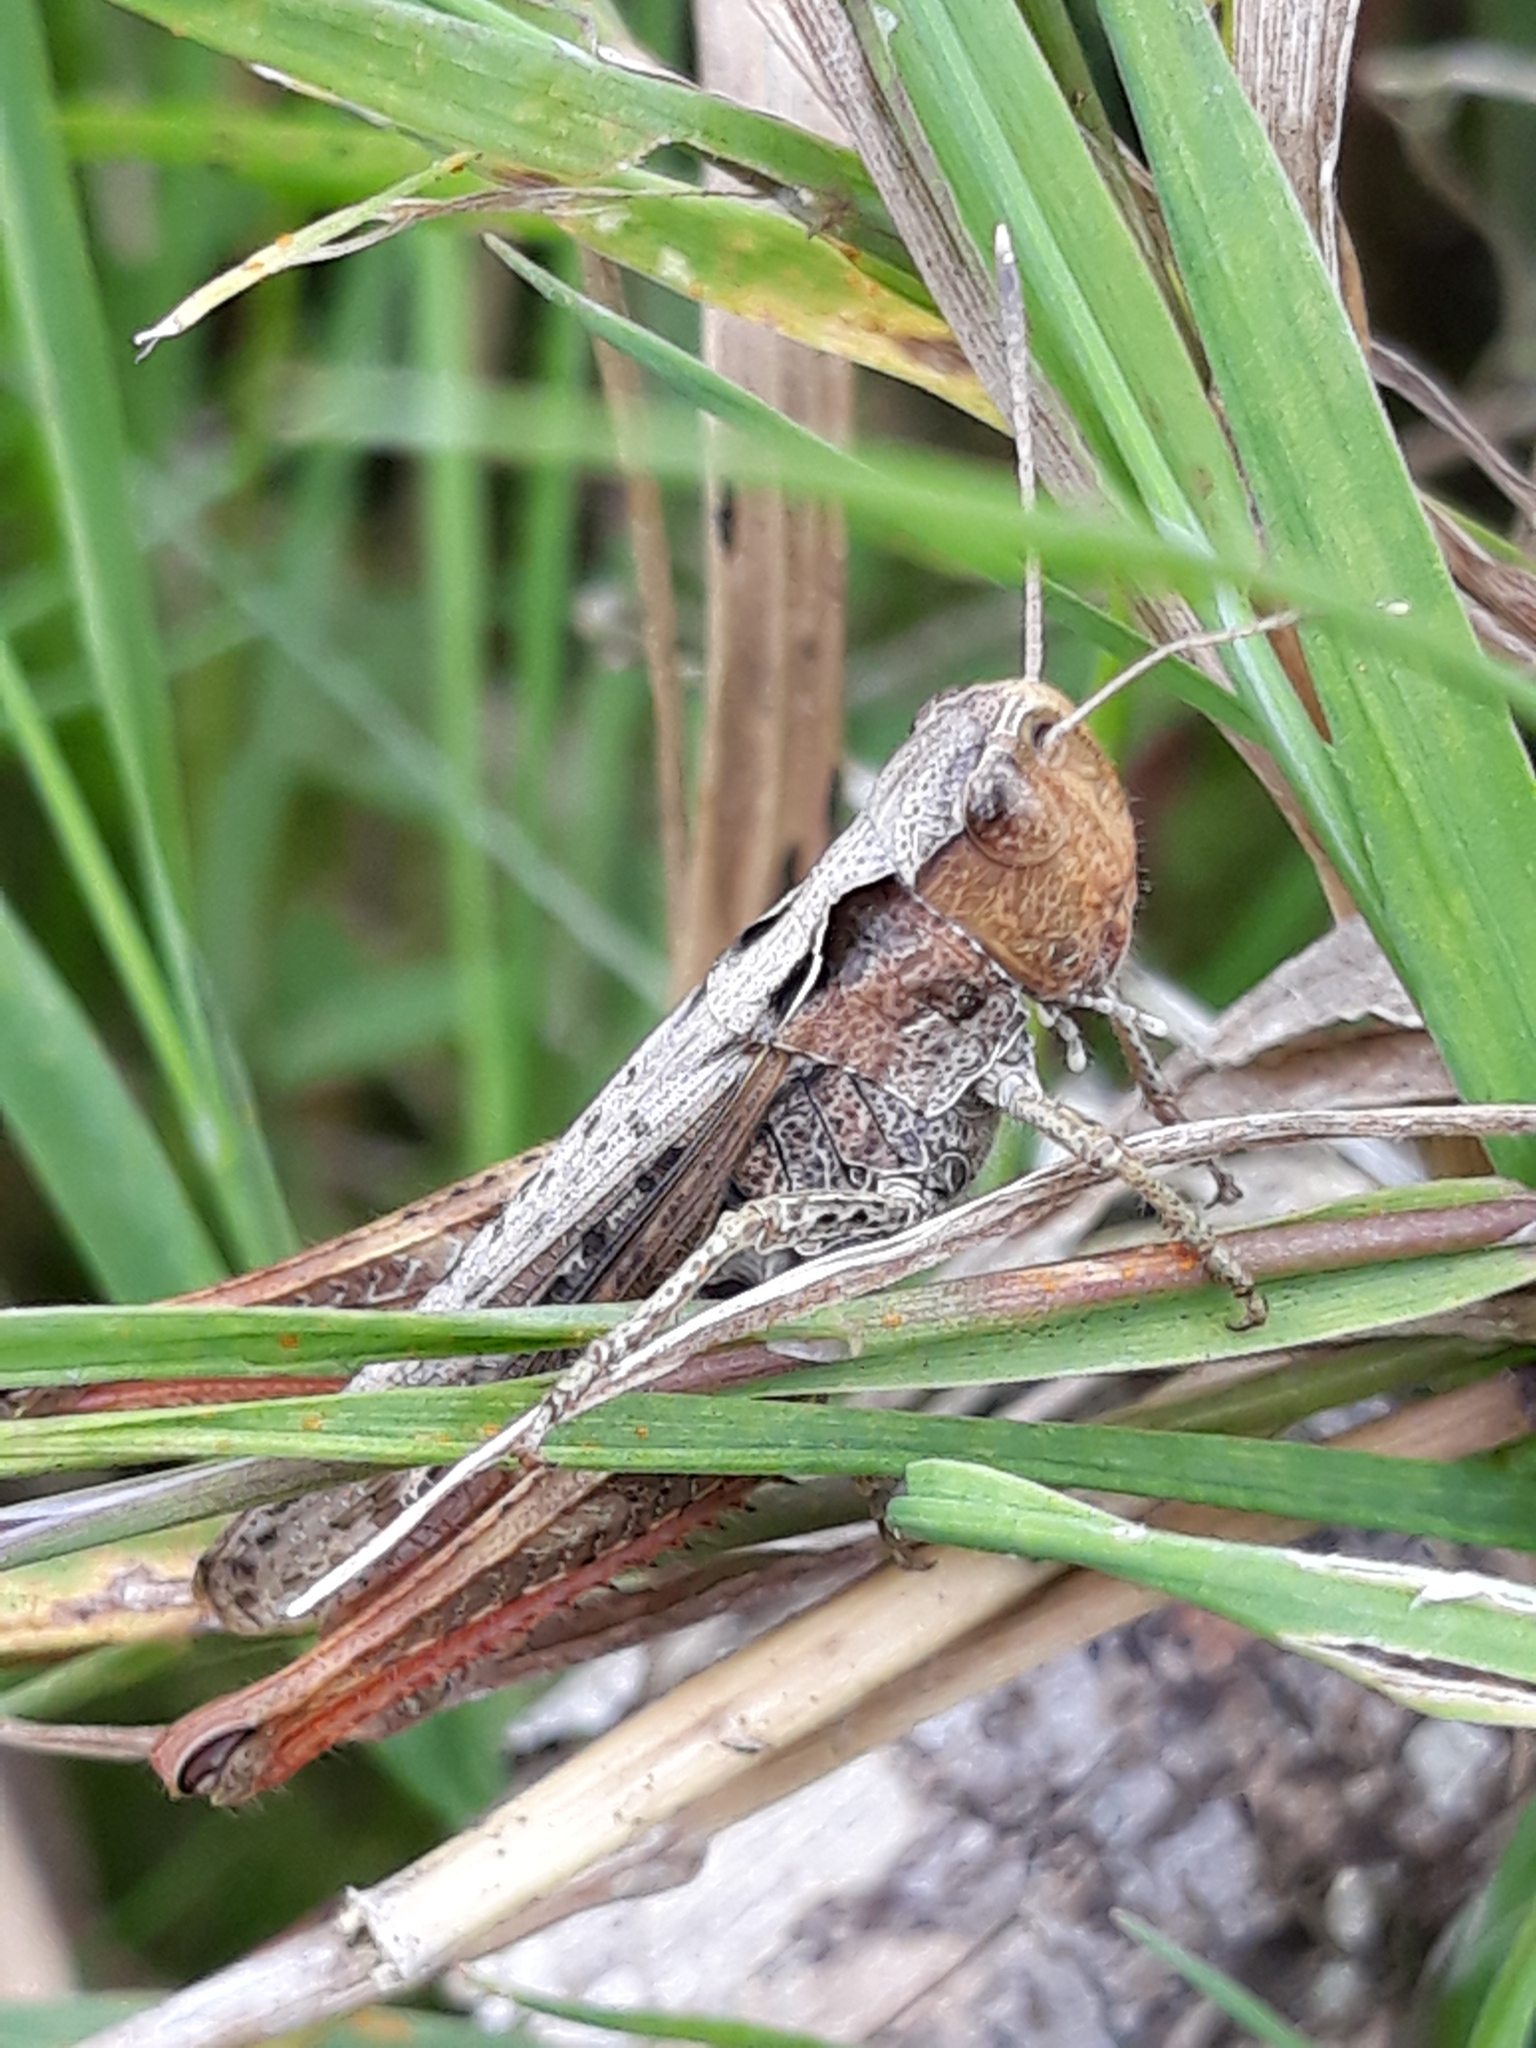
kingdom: Animalia
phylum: Arthropoda
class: Insecta
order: Orthoptera
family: Acrididae
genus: Gomphocerippus
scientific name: Gomphocerippus rufus
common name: Rufous grasshopper
